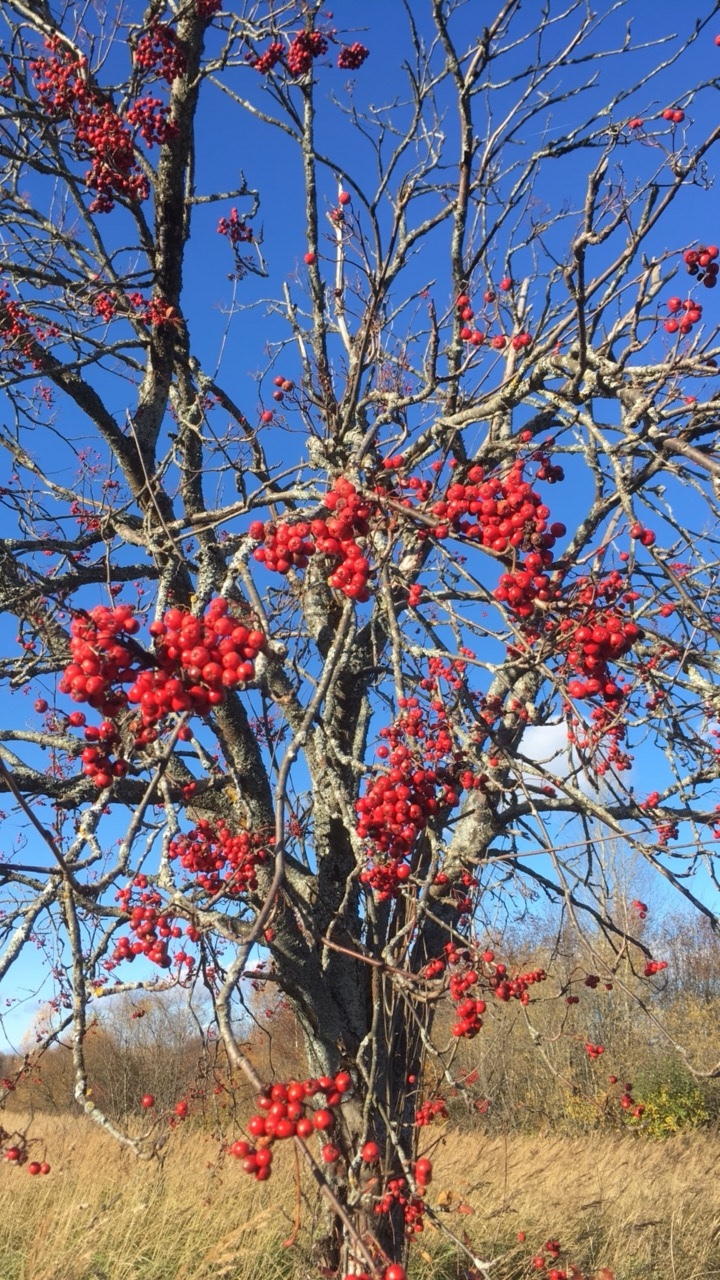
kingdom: Plantae
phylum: Tracheophyta
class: Magnoliopsida
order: Rosales
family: Rosaceae
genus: Sorbus
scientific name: Sorbus aucuparia
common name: Rowan
